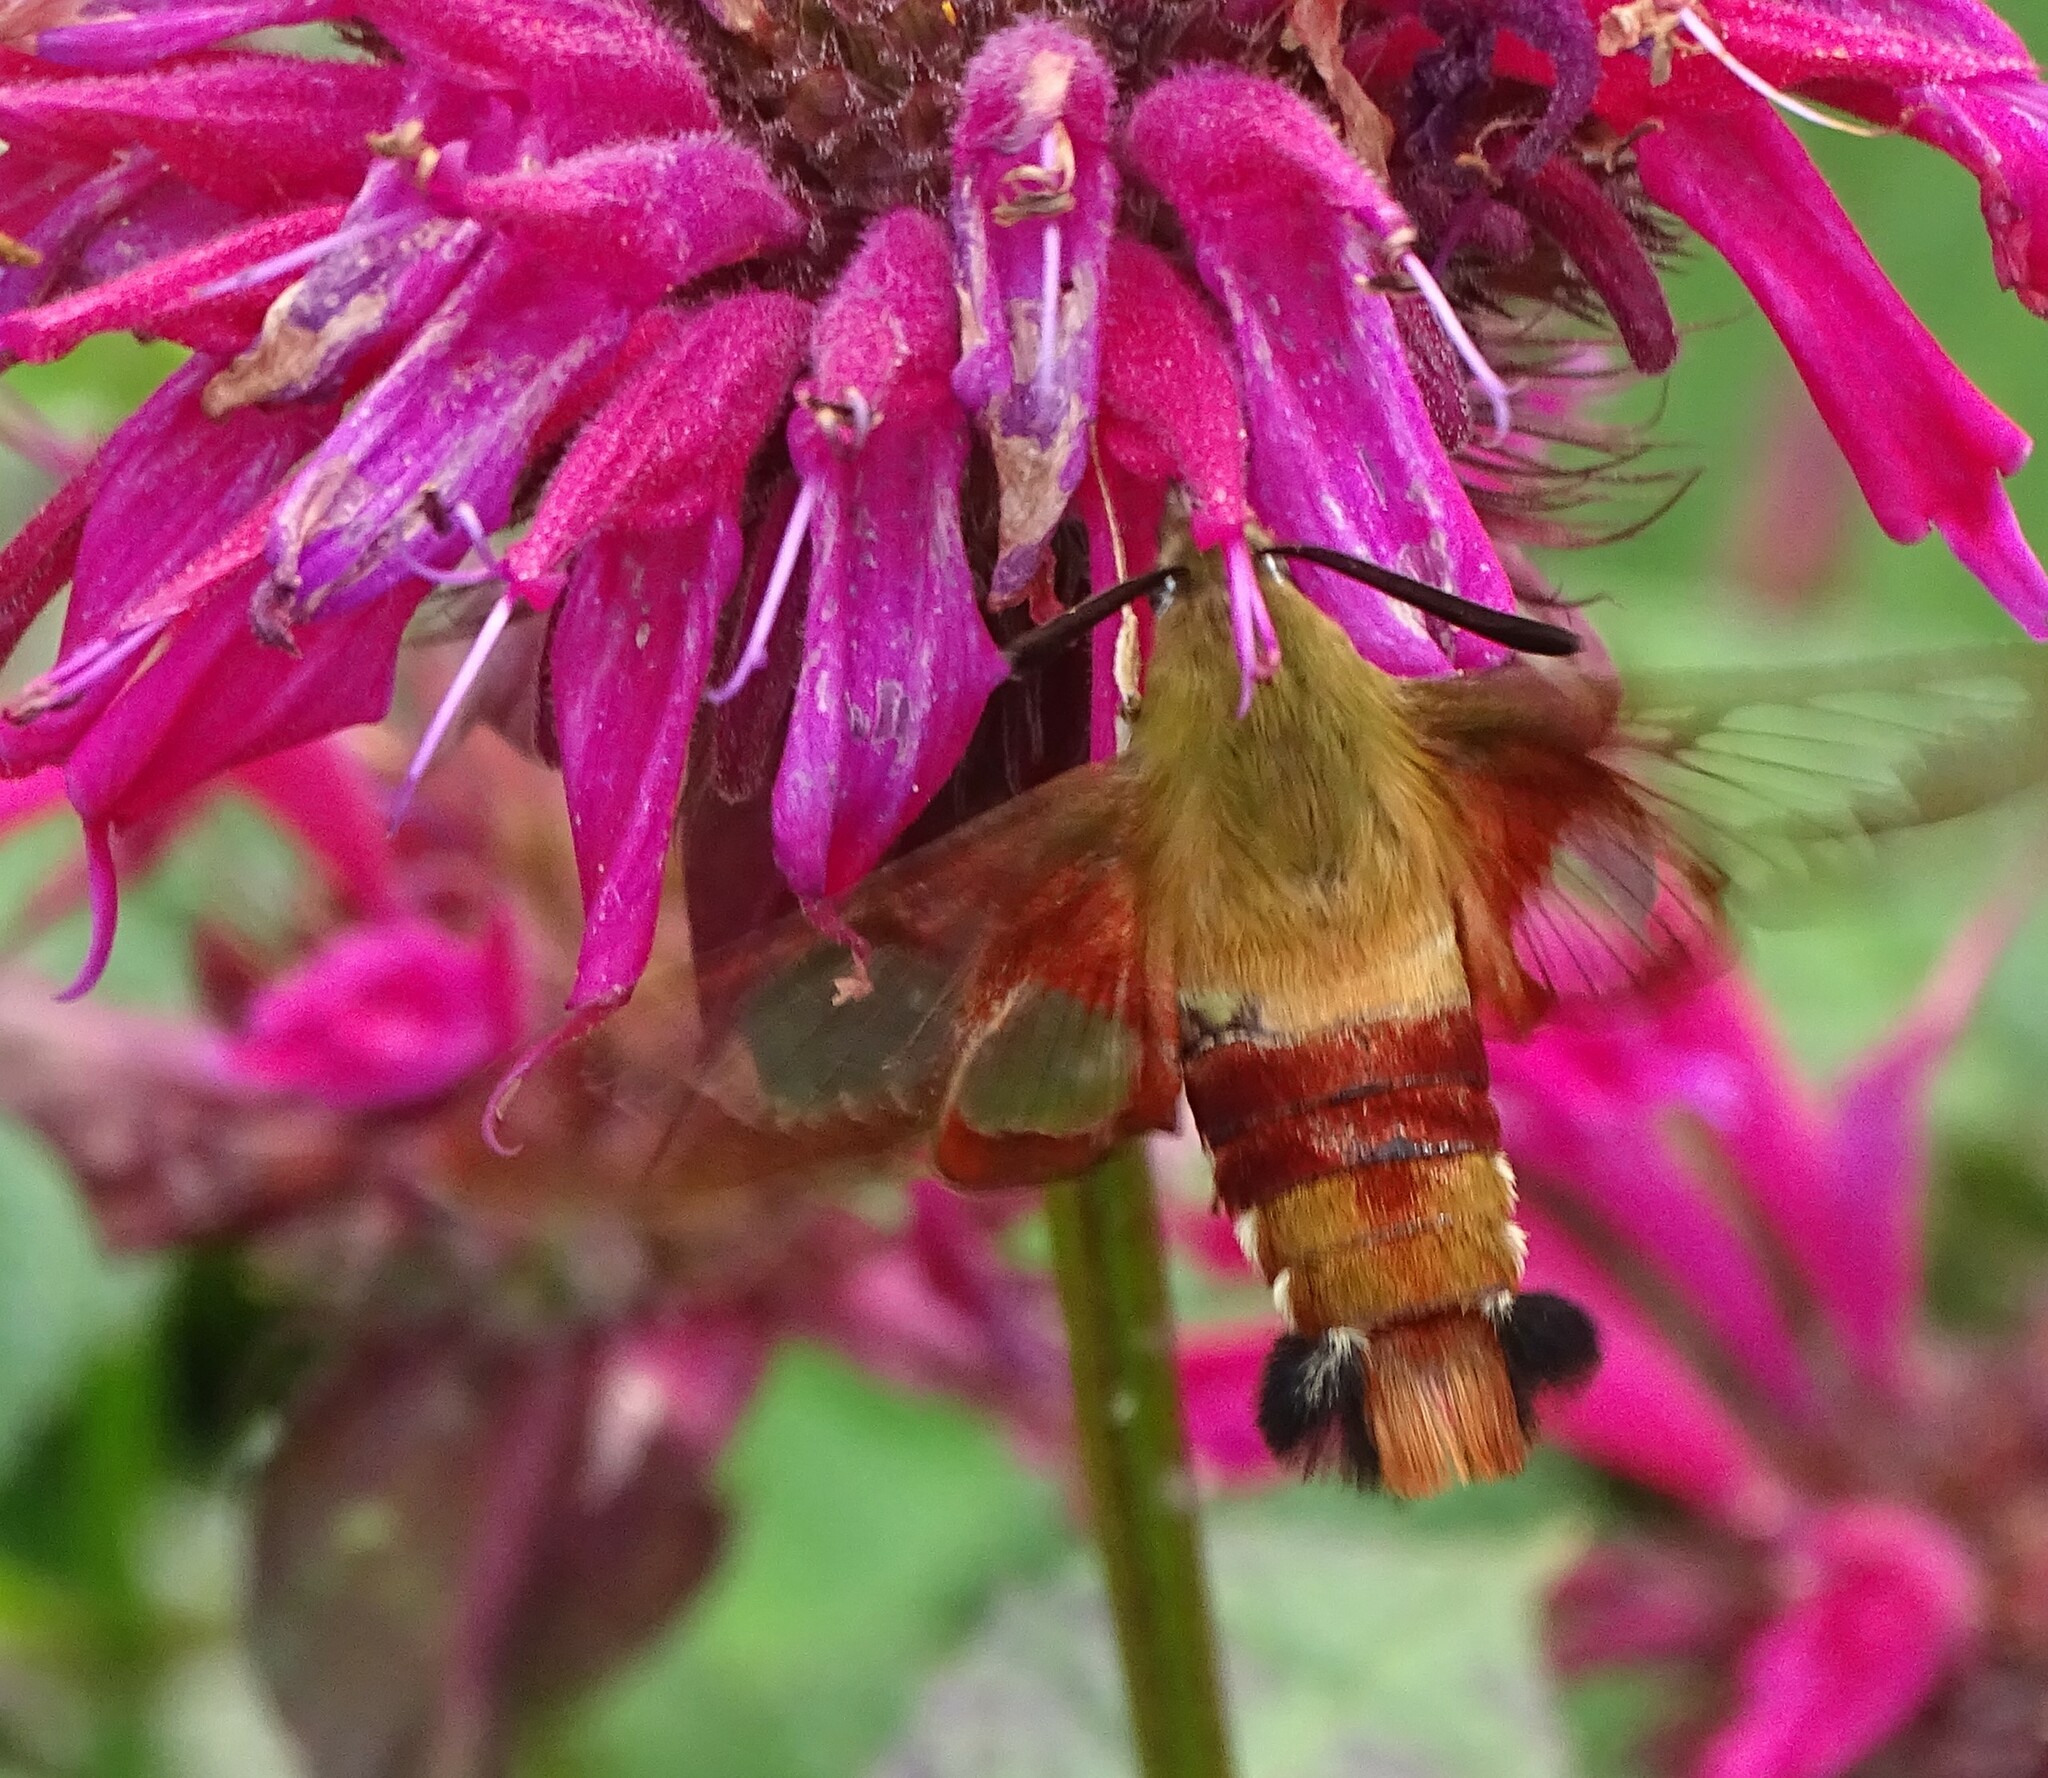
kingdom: Animalia
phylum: Arthropoda
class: Insecta
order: Lepidoptera
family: Sphingidae
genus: Hemaris
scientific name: Hemaris thysbe
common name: Common clear-wing
